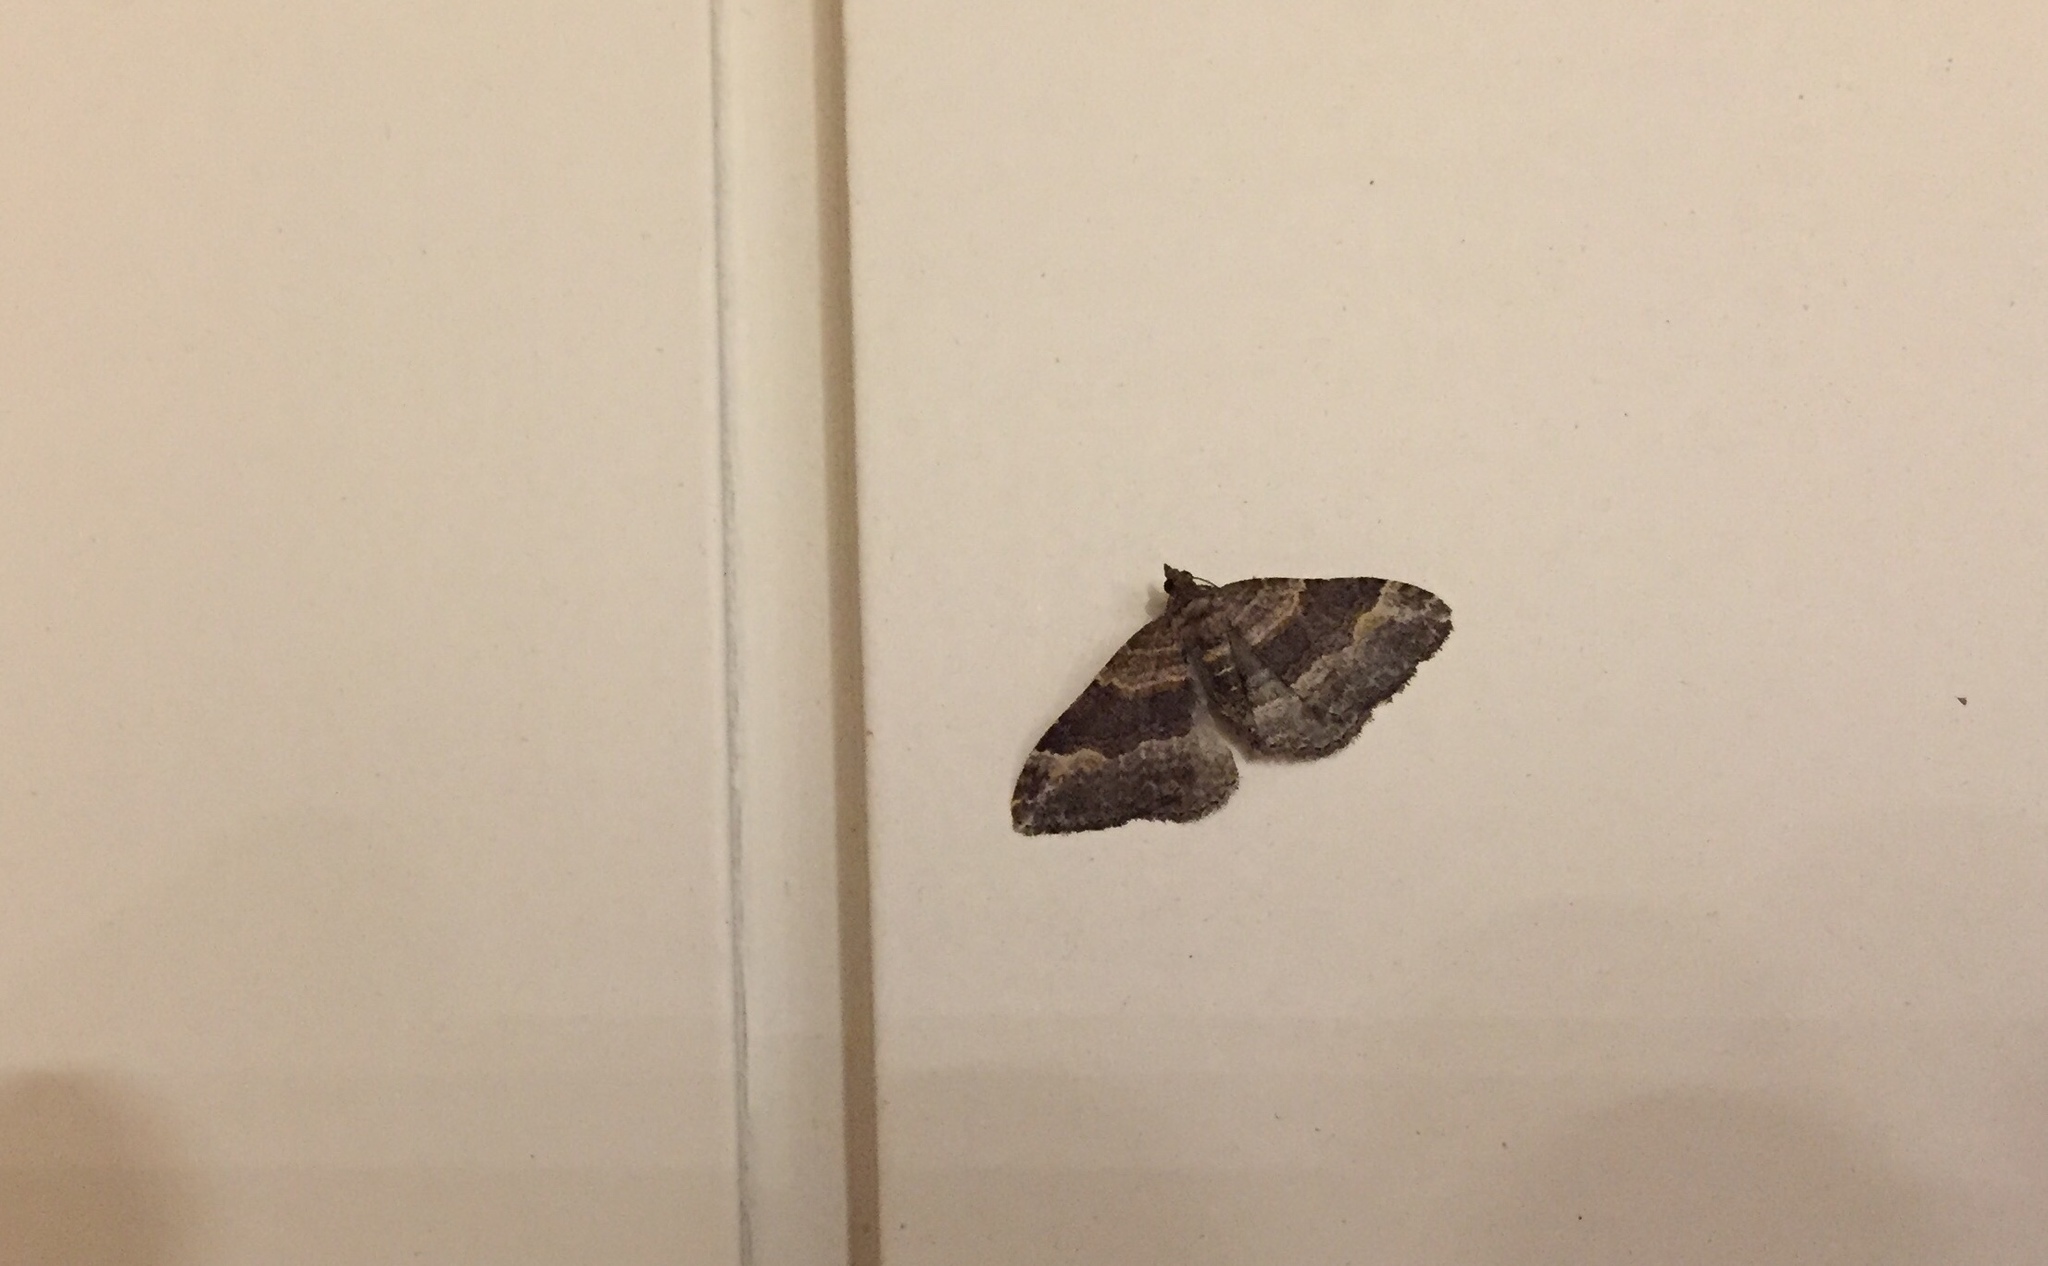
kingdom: Animalia
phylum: Arthropoda
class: Insecta
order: Lepidoptera
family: Geometridae
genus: Epyaxa
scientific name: Epyaxa lucidata
